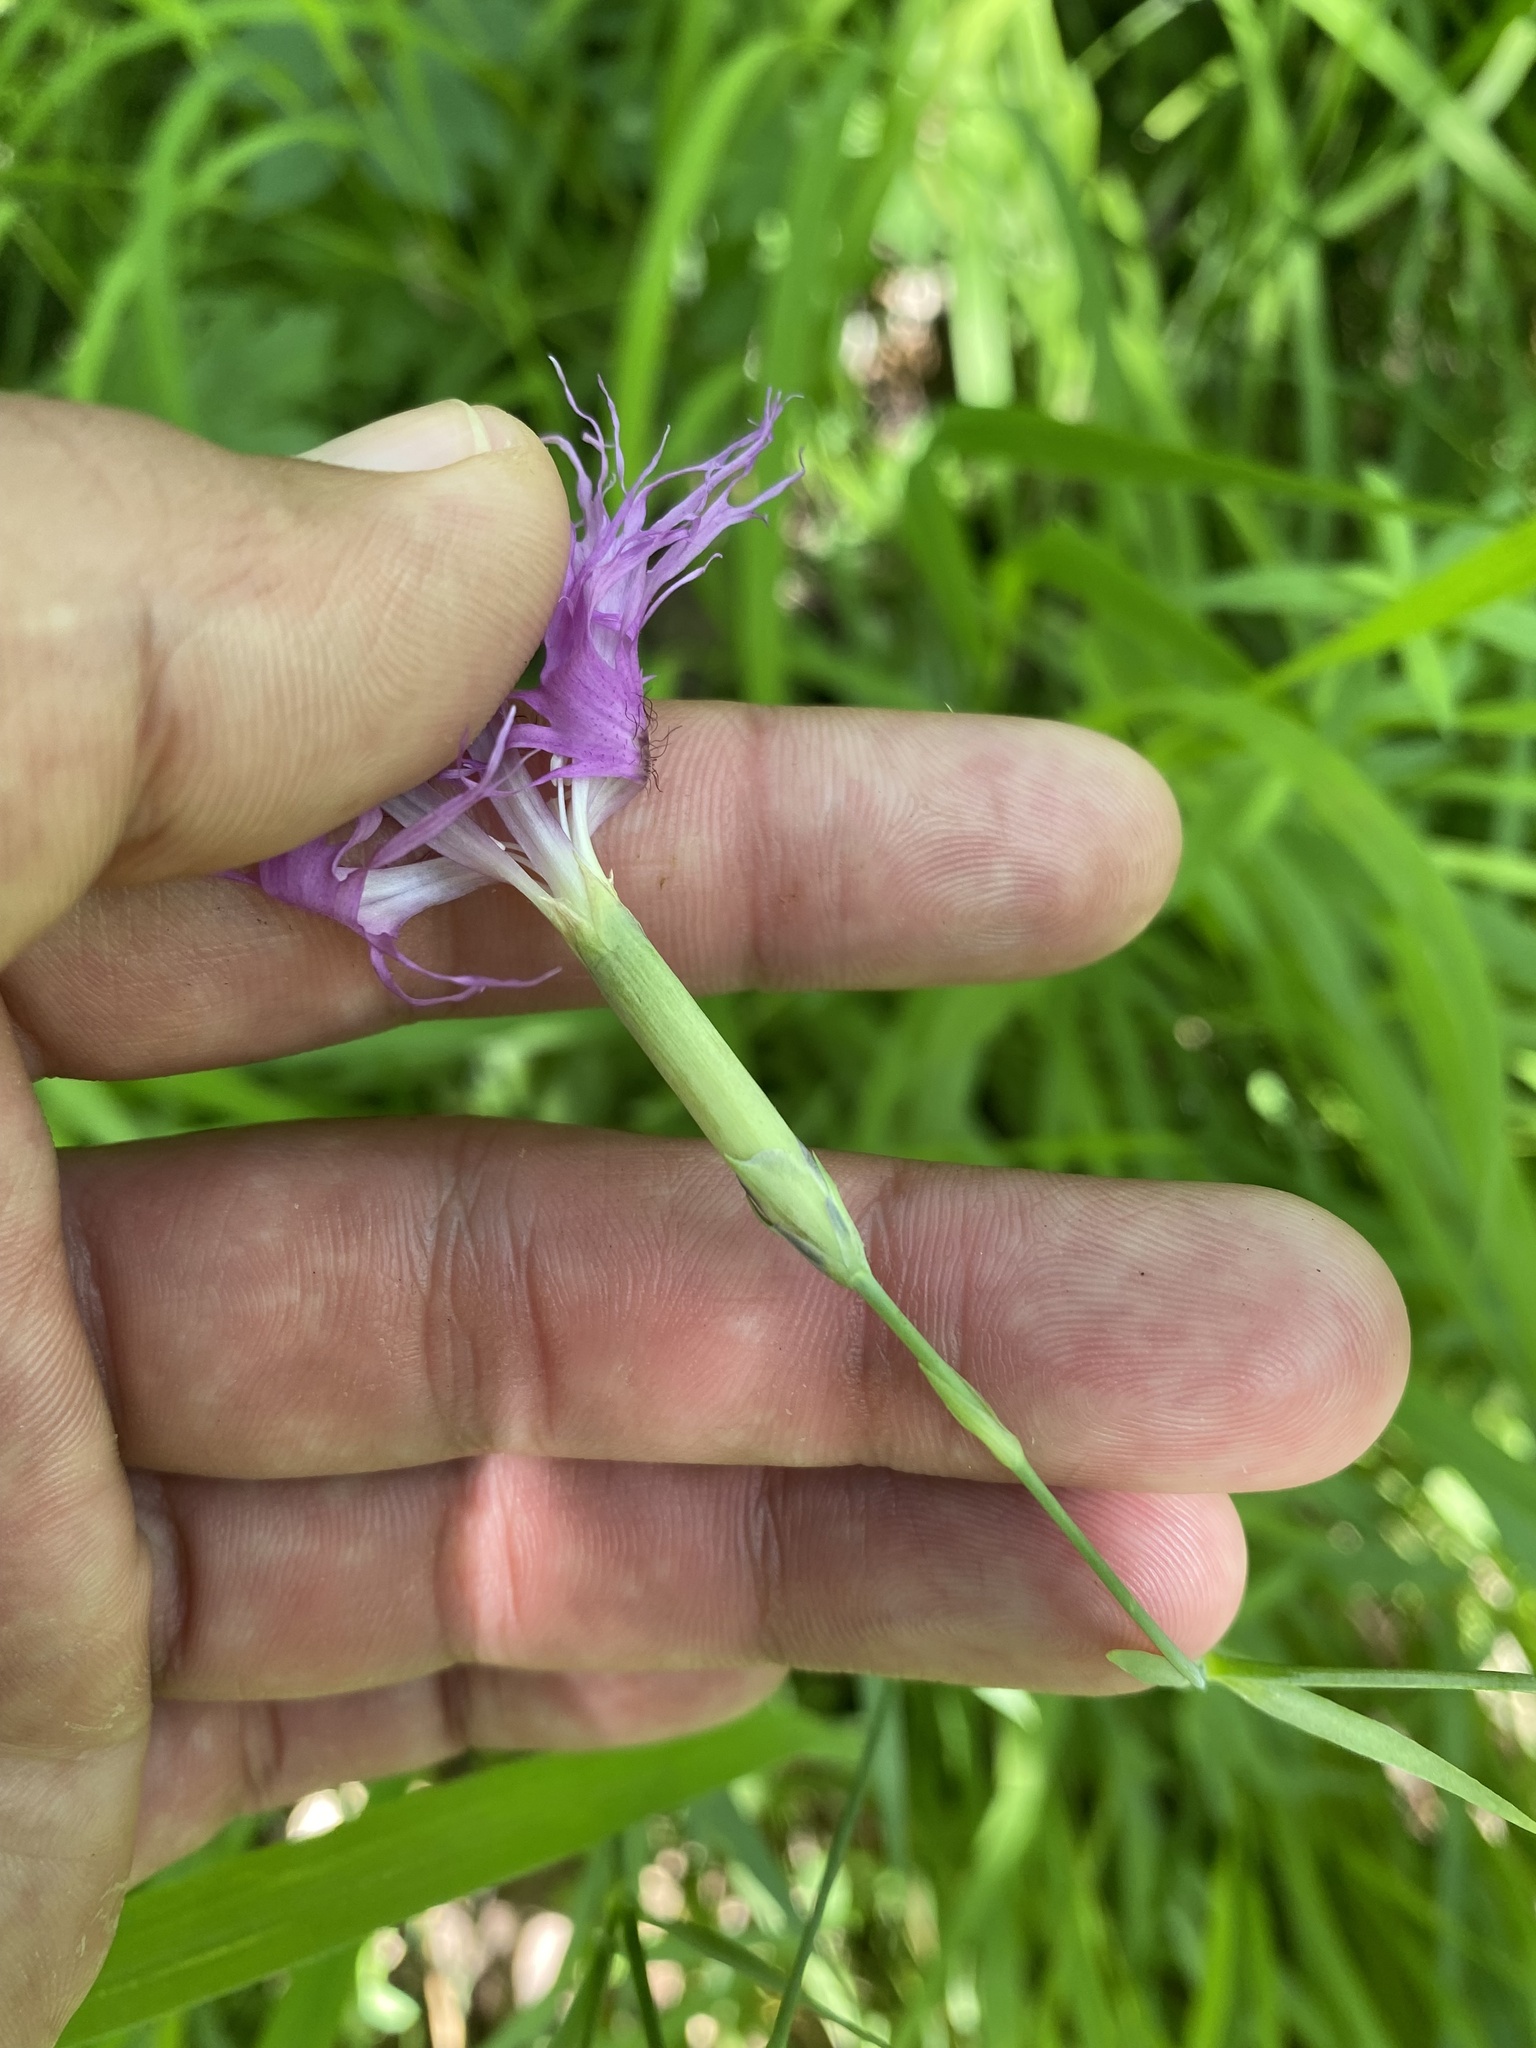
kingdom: Plantae
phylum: Tracheophyta
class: Magnoliopsida
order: Caryophyllales
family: Caryophyllaceae
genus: Dianthus
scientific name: Dianthus superbus
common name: Fringed pink
